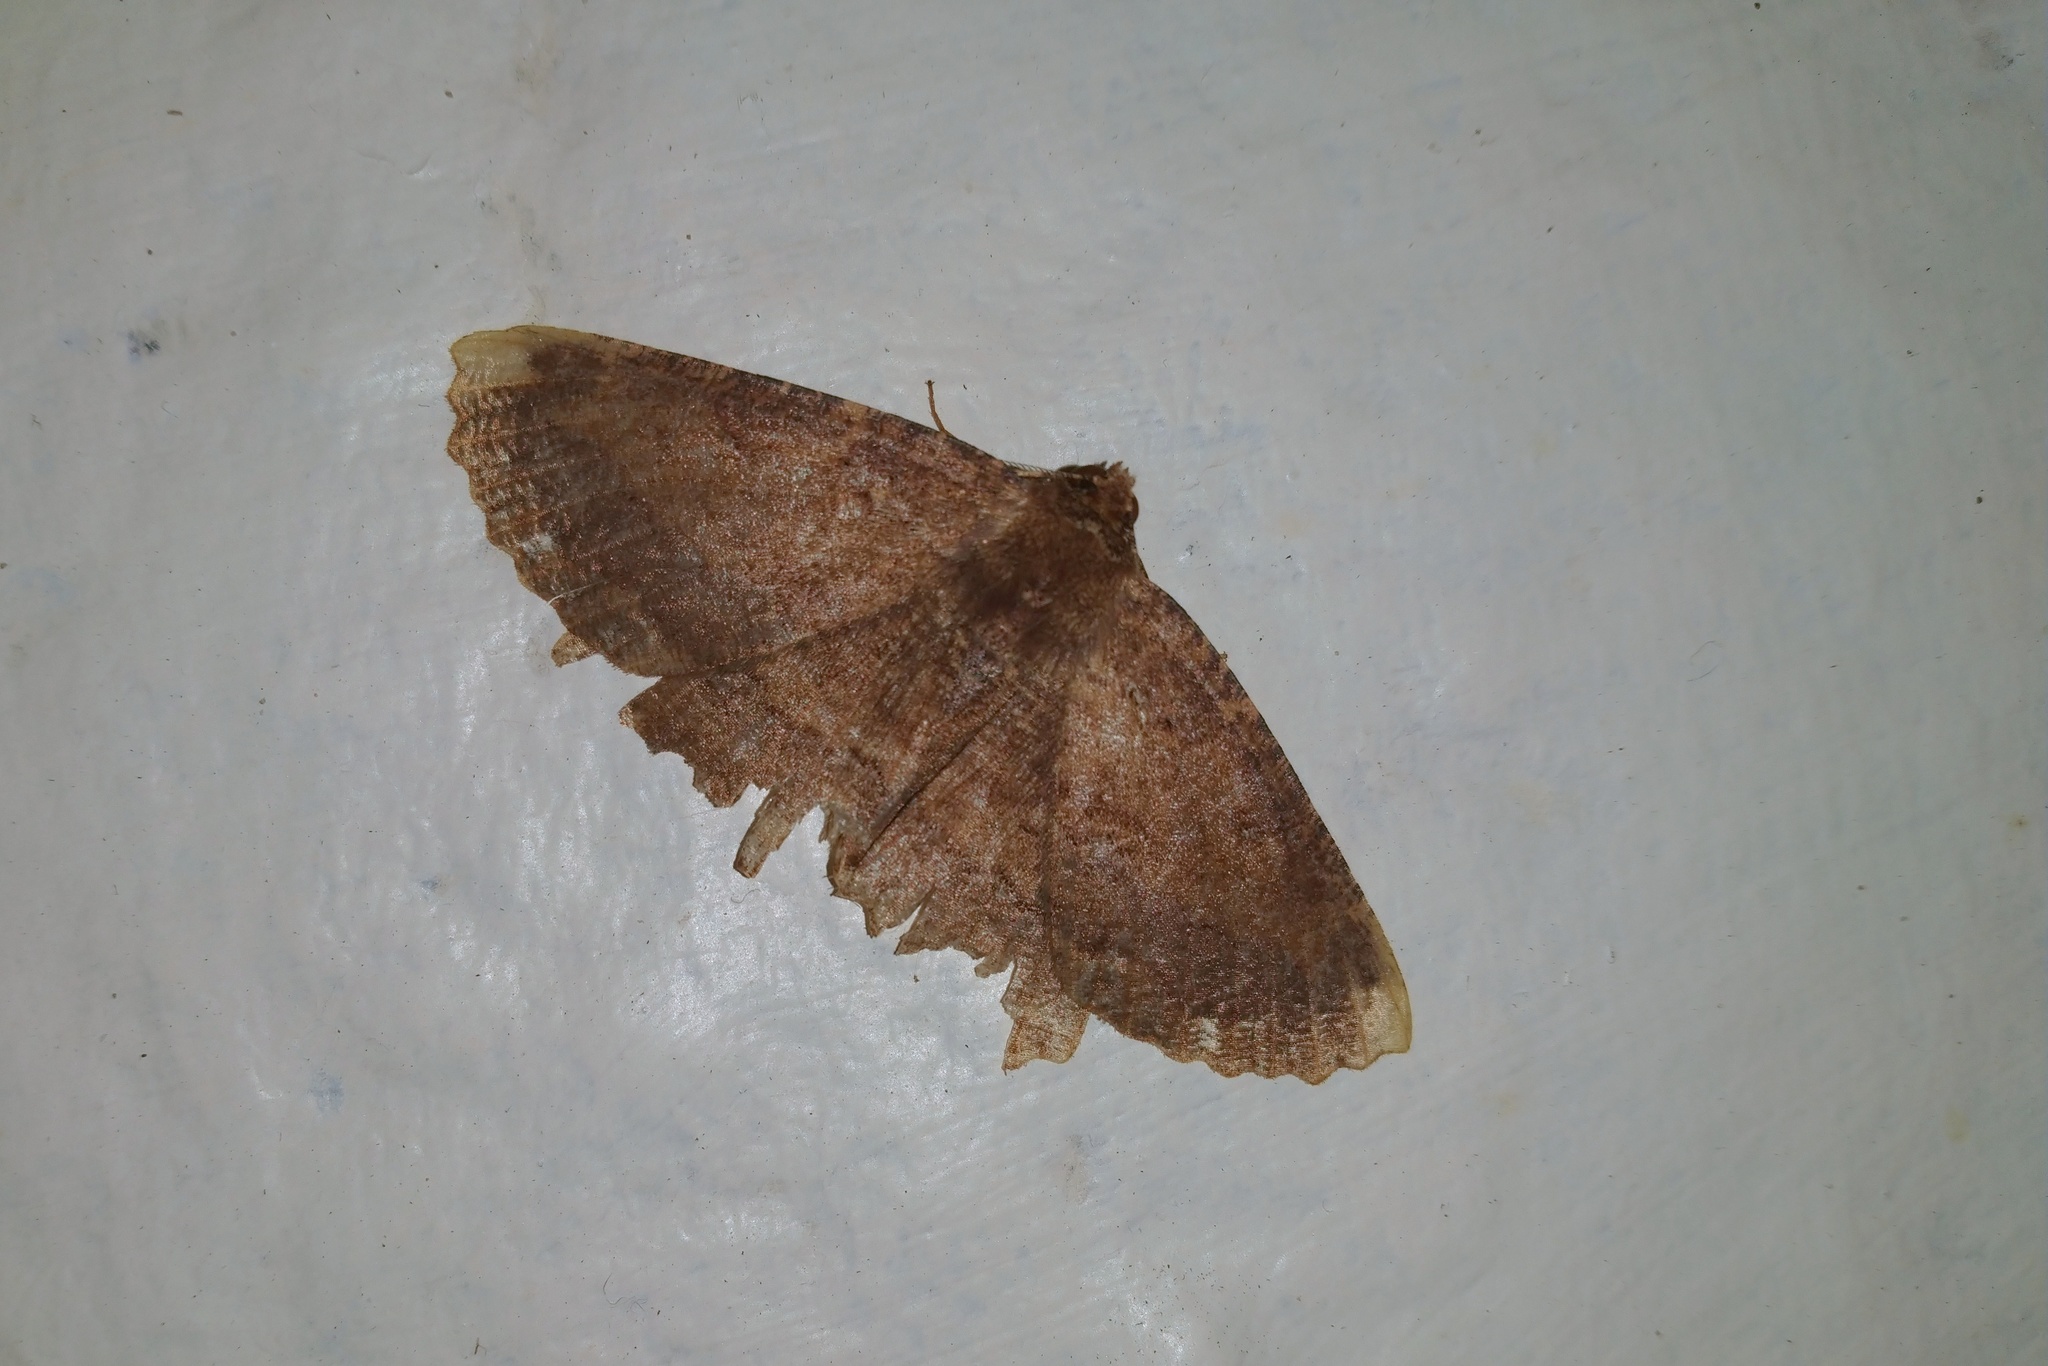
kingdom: Animalia
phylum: Arthropoda
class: Insecta
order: Lepidoptera
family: Geometridae
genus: Gellonia
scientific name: Gellonia dejectaria
